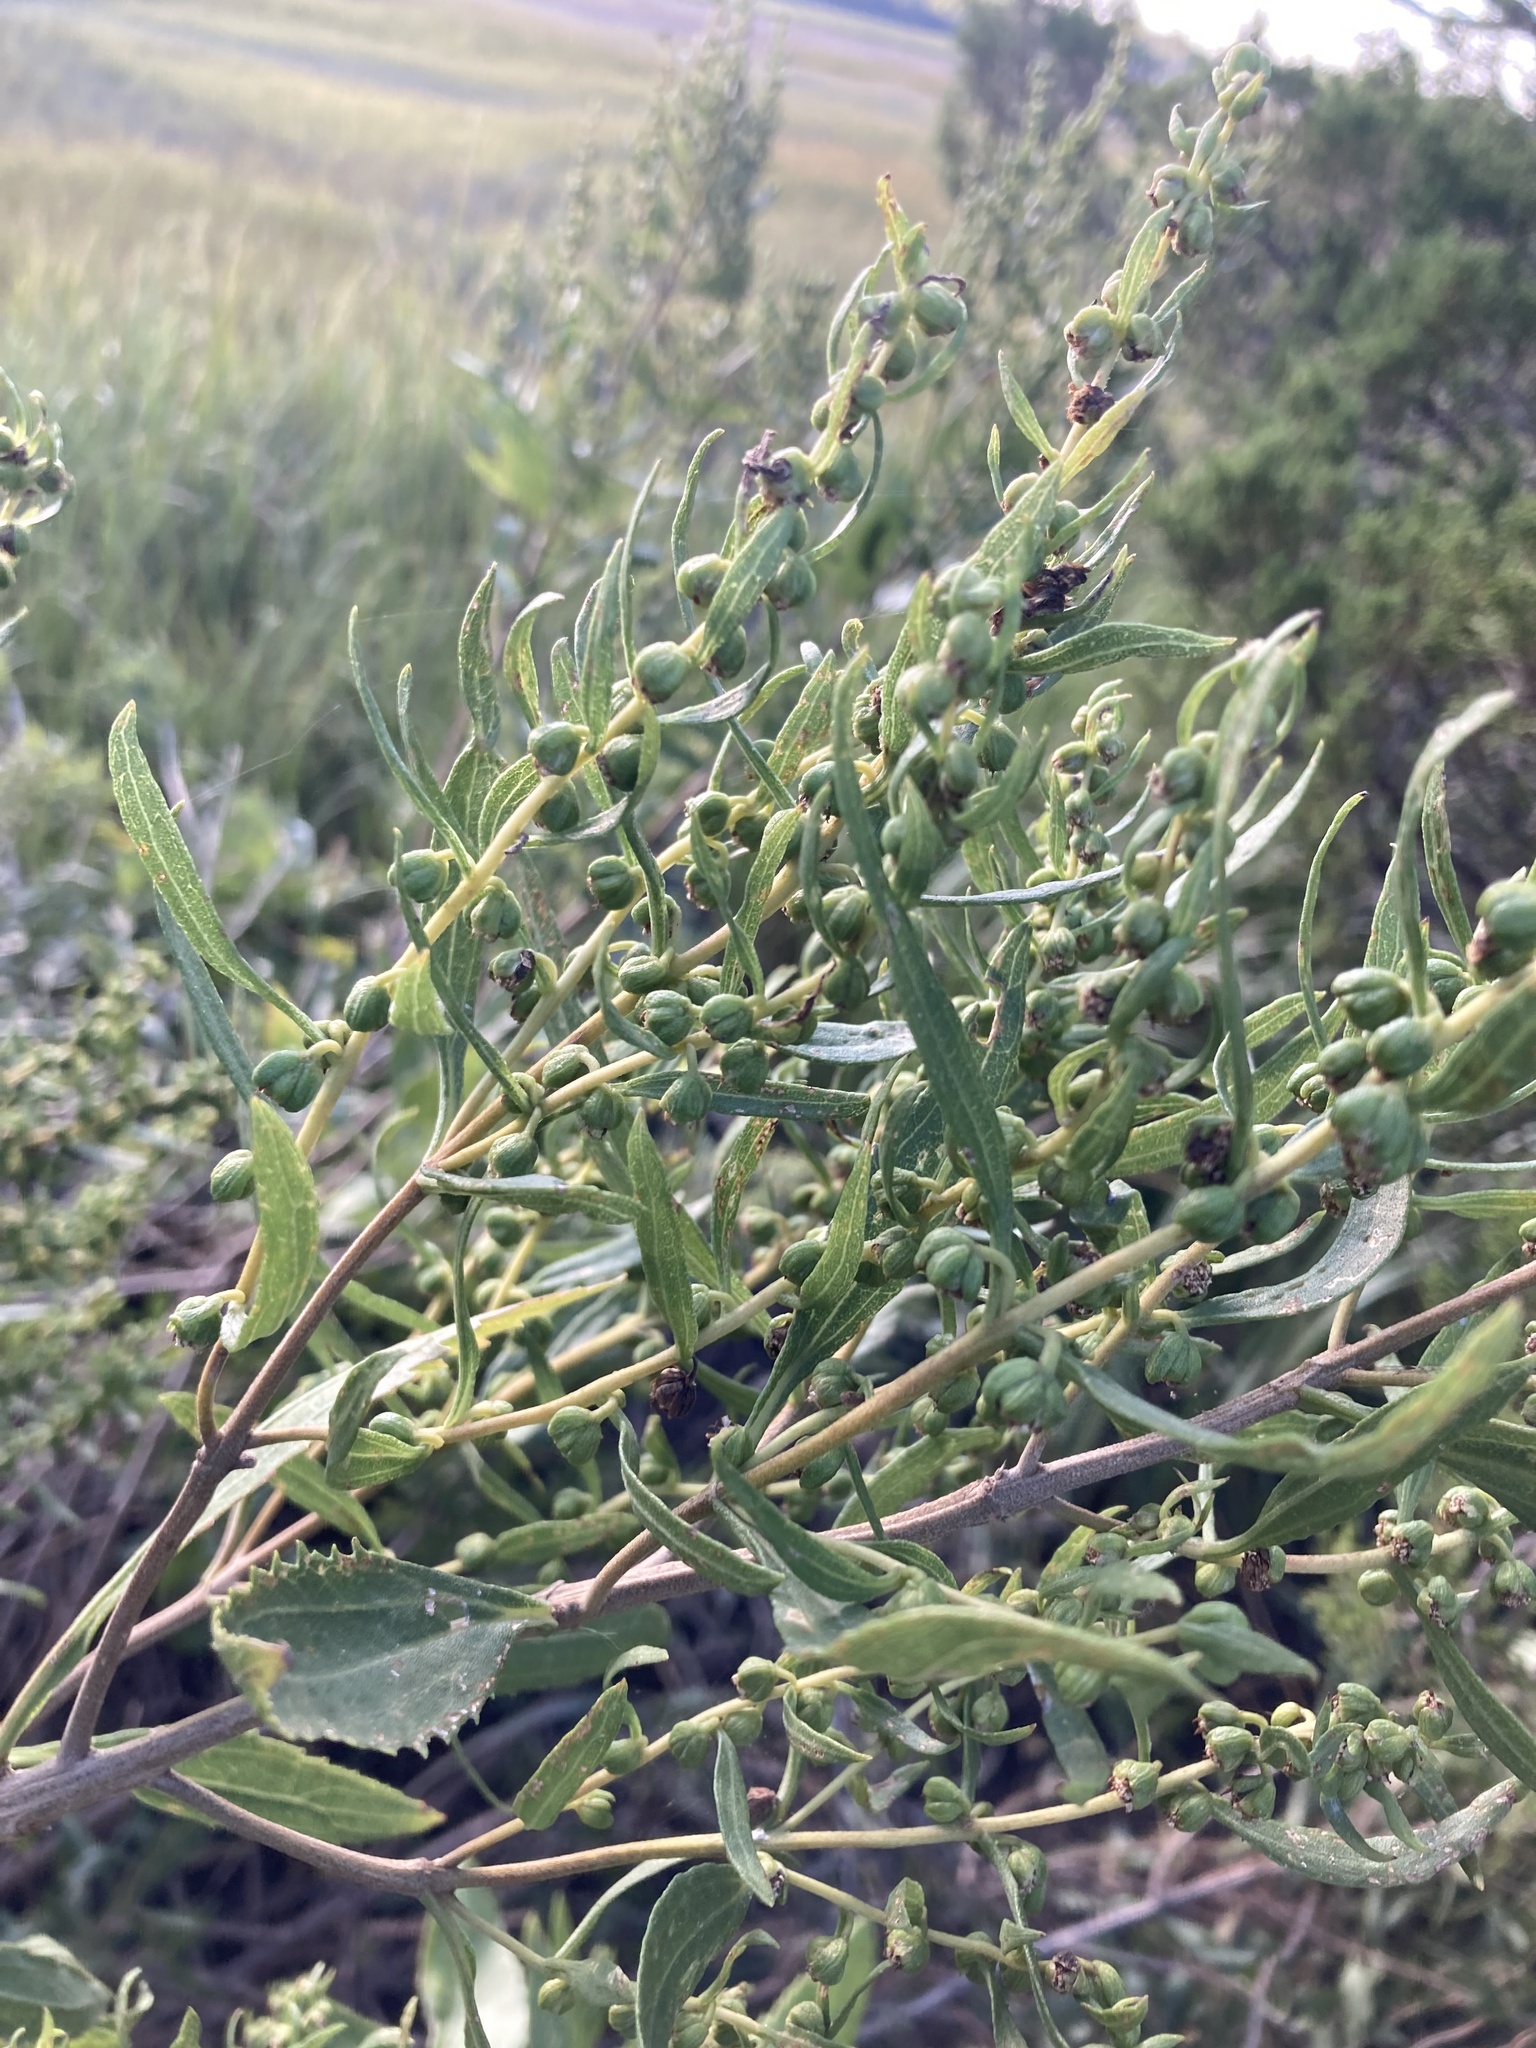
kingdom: Plantae
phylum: Tracheophyta
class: Magnoliopsida
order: Asterales
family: Asteraceae
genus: Iva
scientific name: Iva frutescens
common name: Big-leaved marsh-elder
